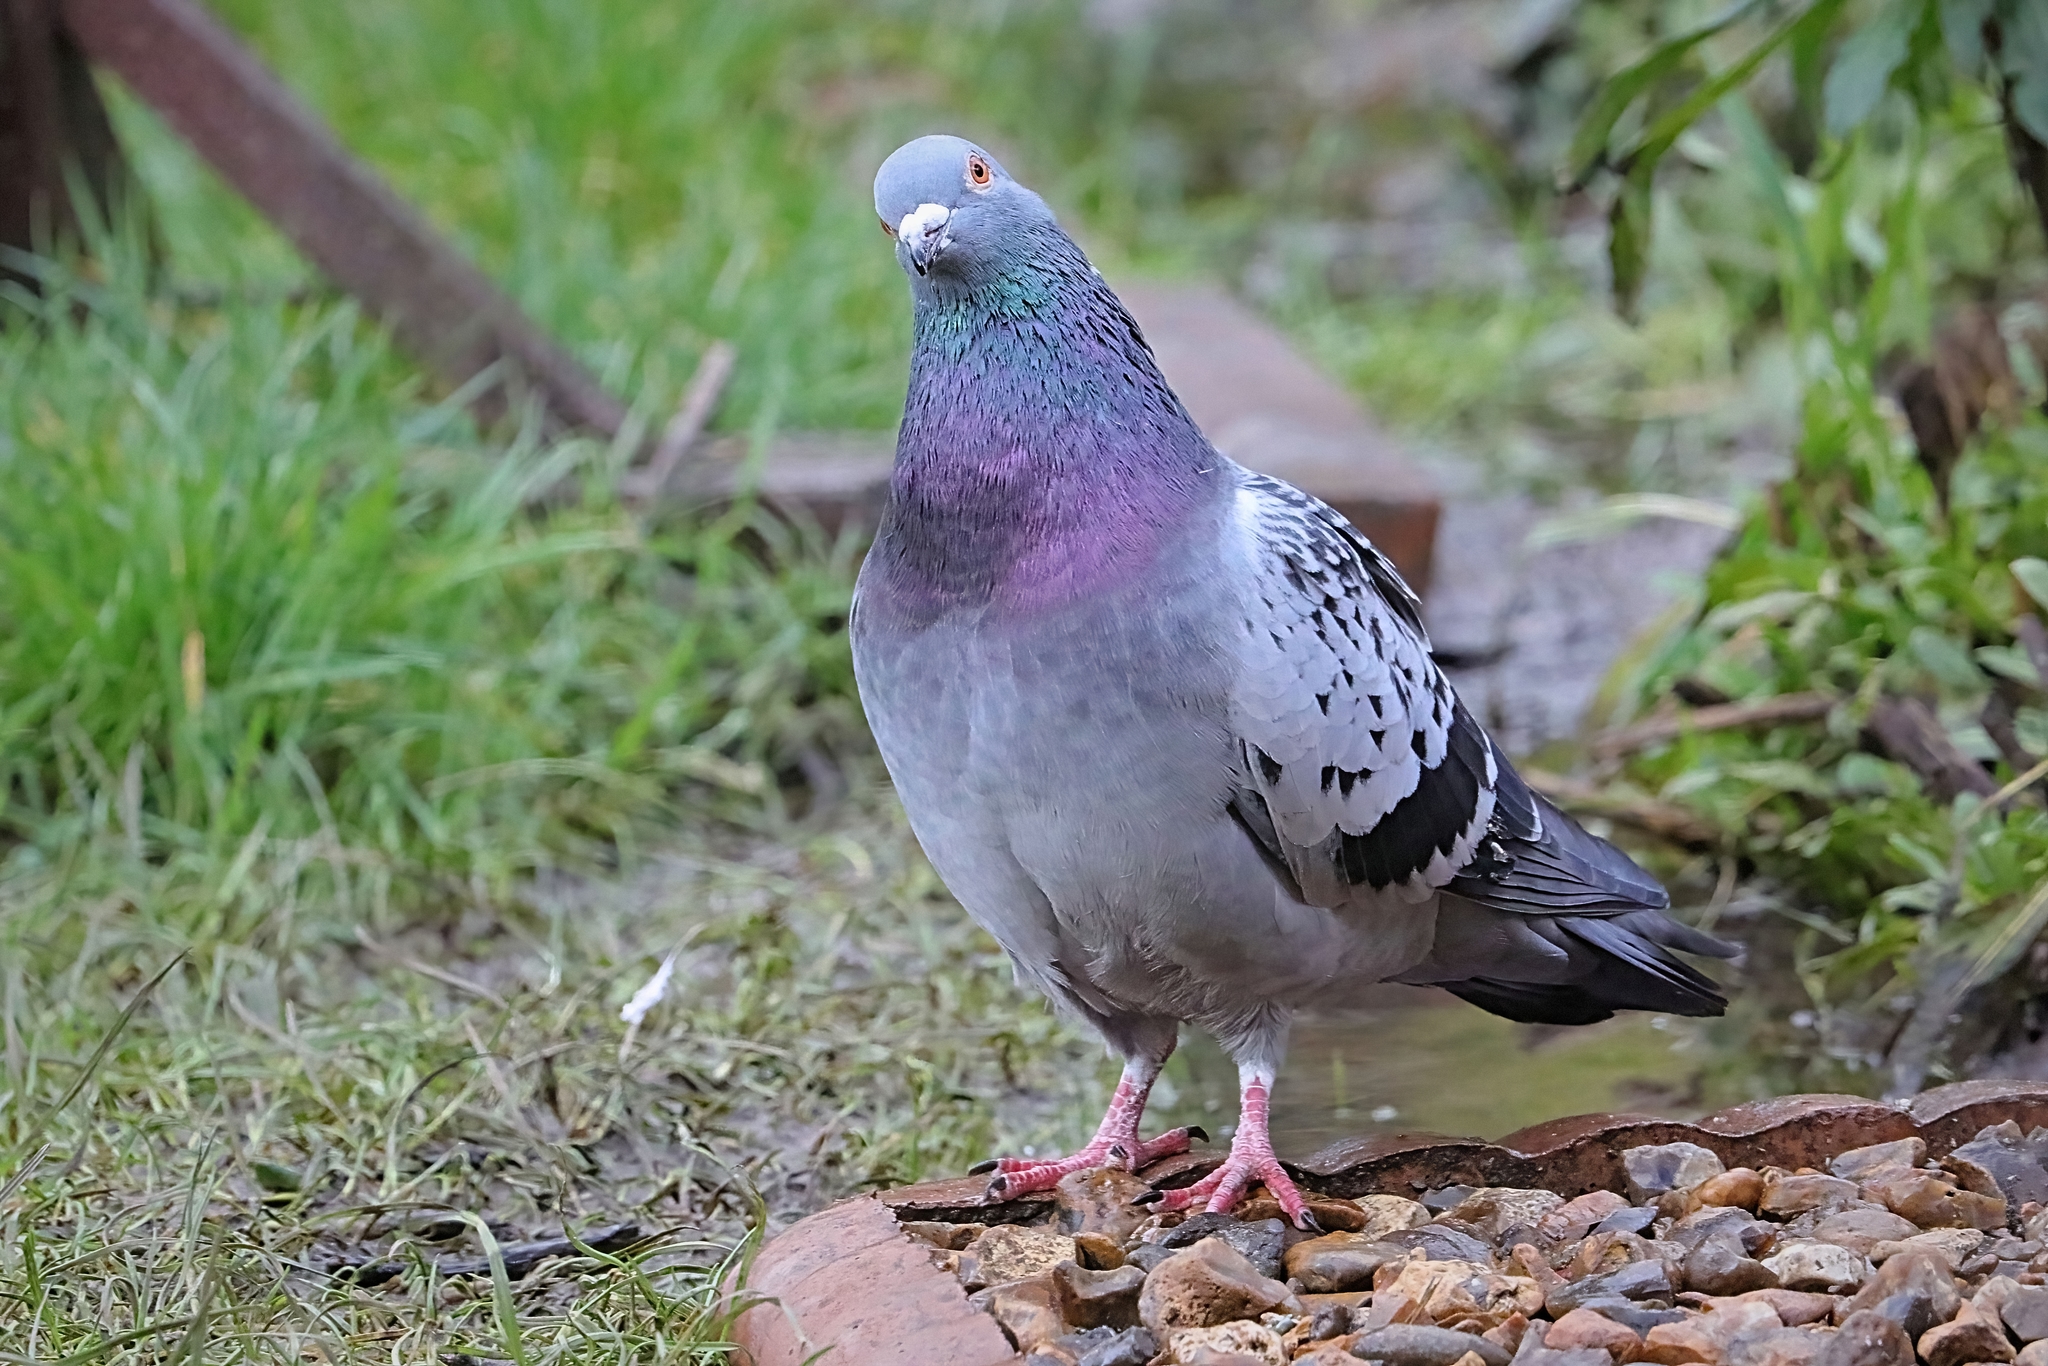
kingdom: Animalia
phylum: Chordata
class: Aves
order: Columbiformes
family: Columbidae
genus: Columba
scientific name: Columba livia
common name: Rock pigeon
